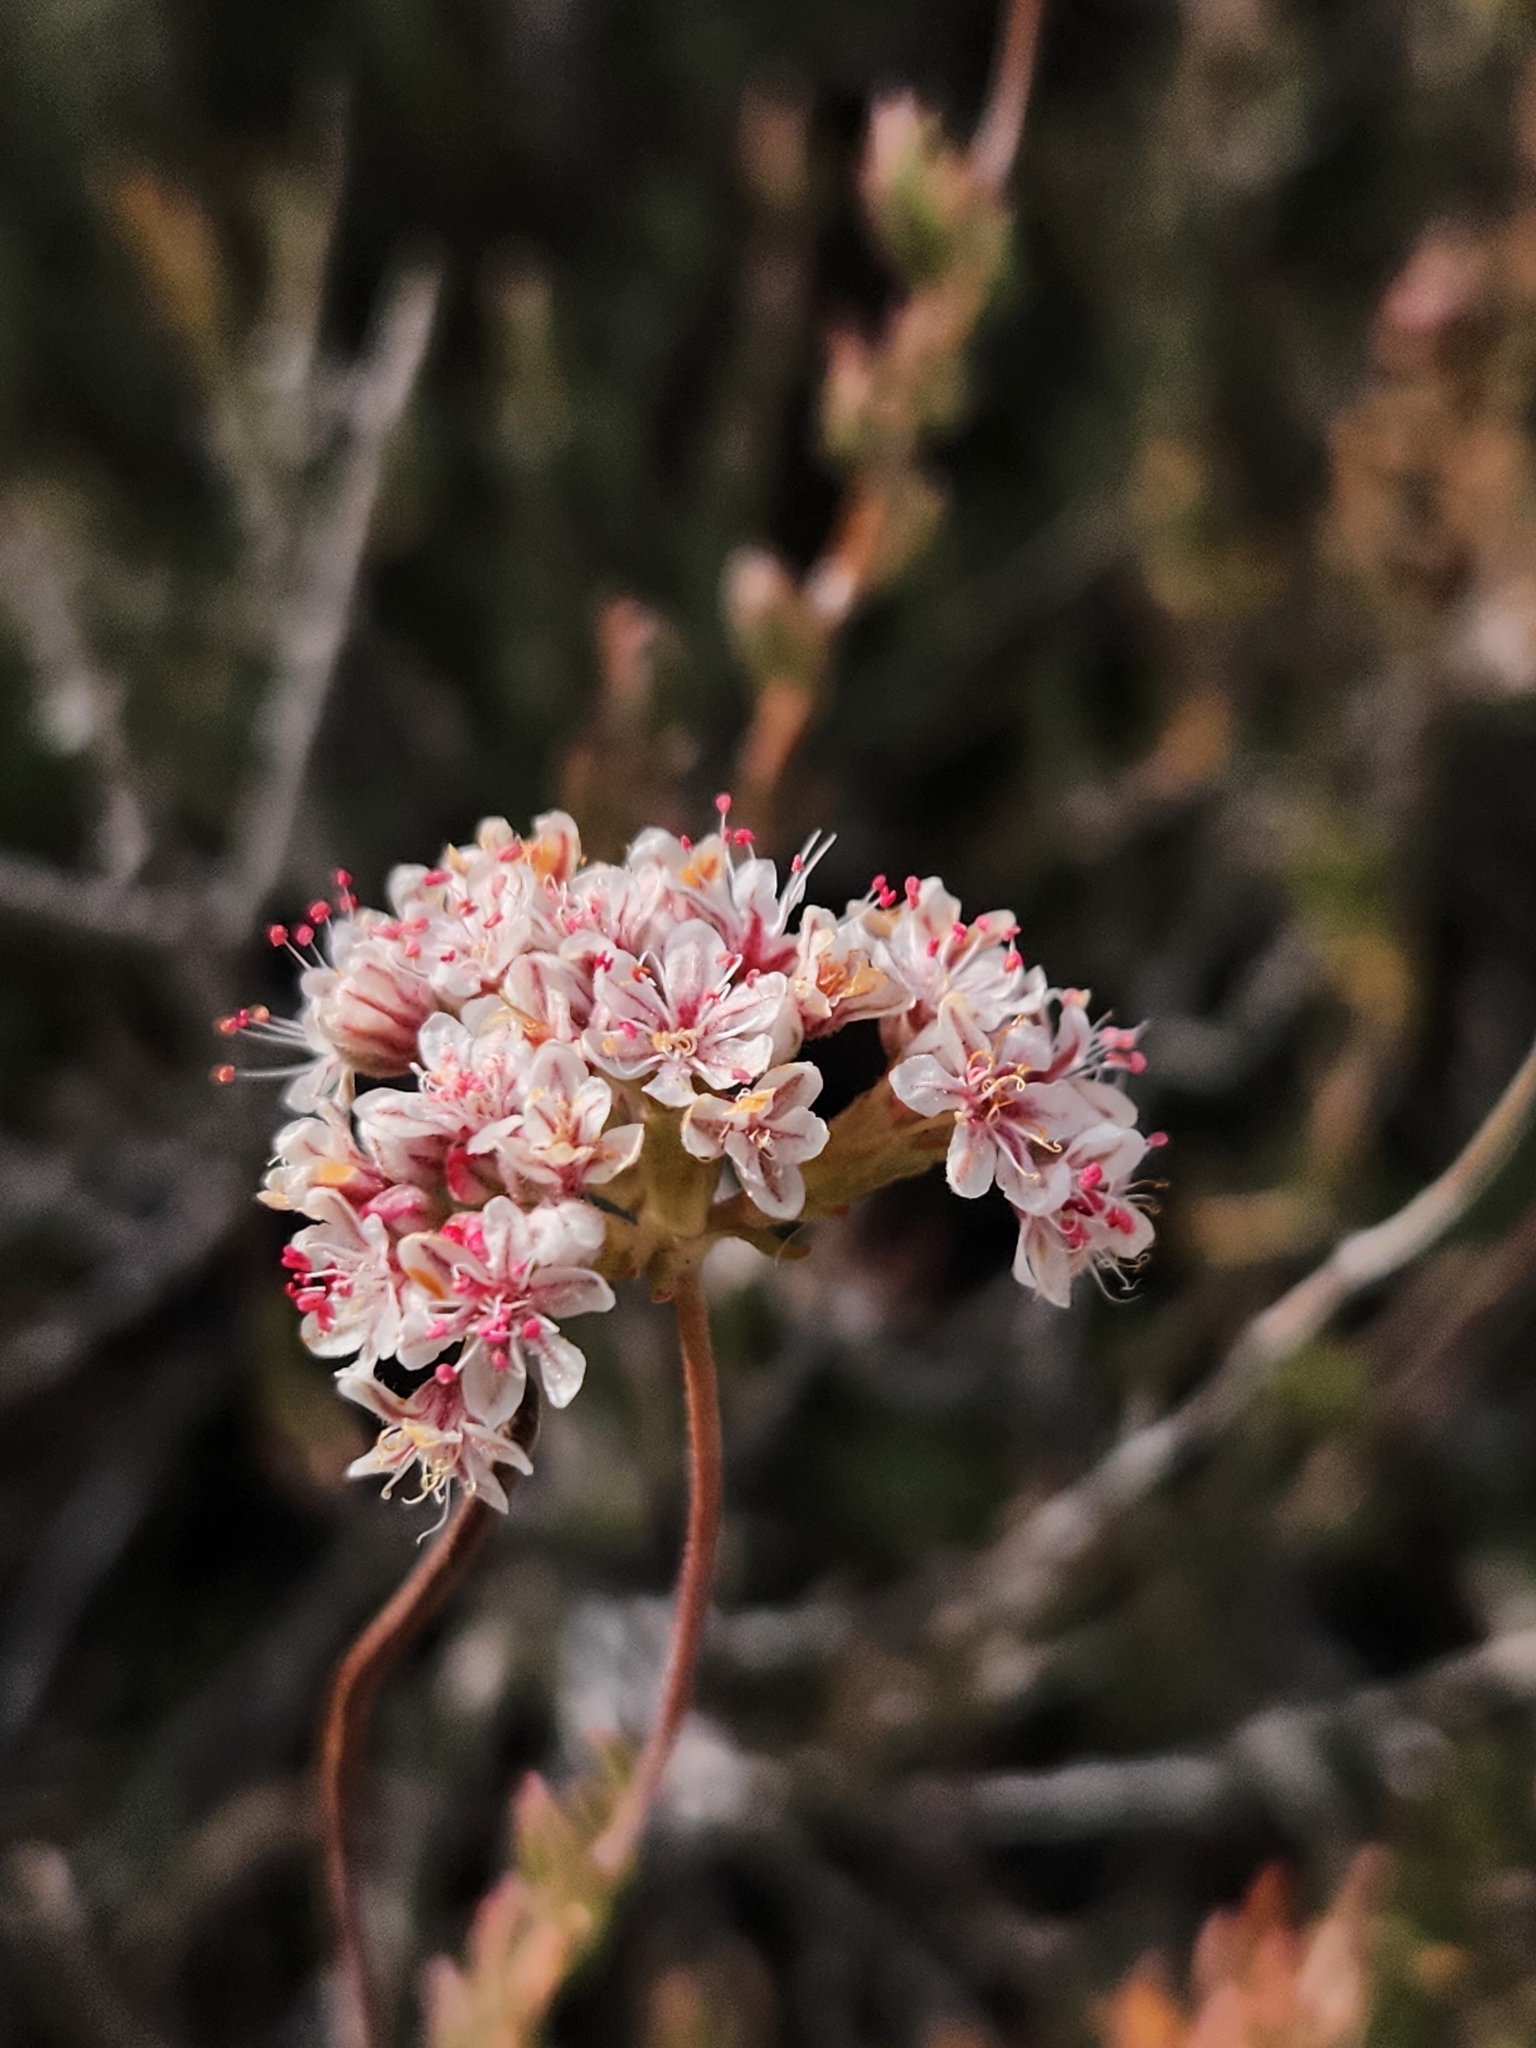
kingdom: Plantae
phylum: Tracheophyta
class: Magnoliopsida
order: Caryophyllales
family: Polygonaceae
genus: Eriogonum
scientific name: Eriogonum fasciculatum
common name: California wild buckwheat
